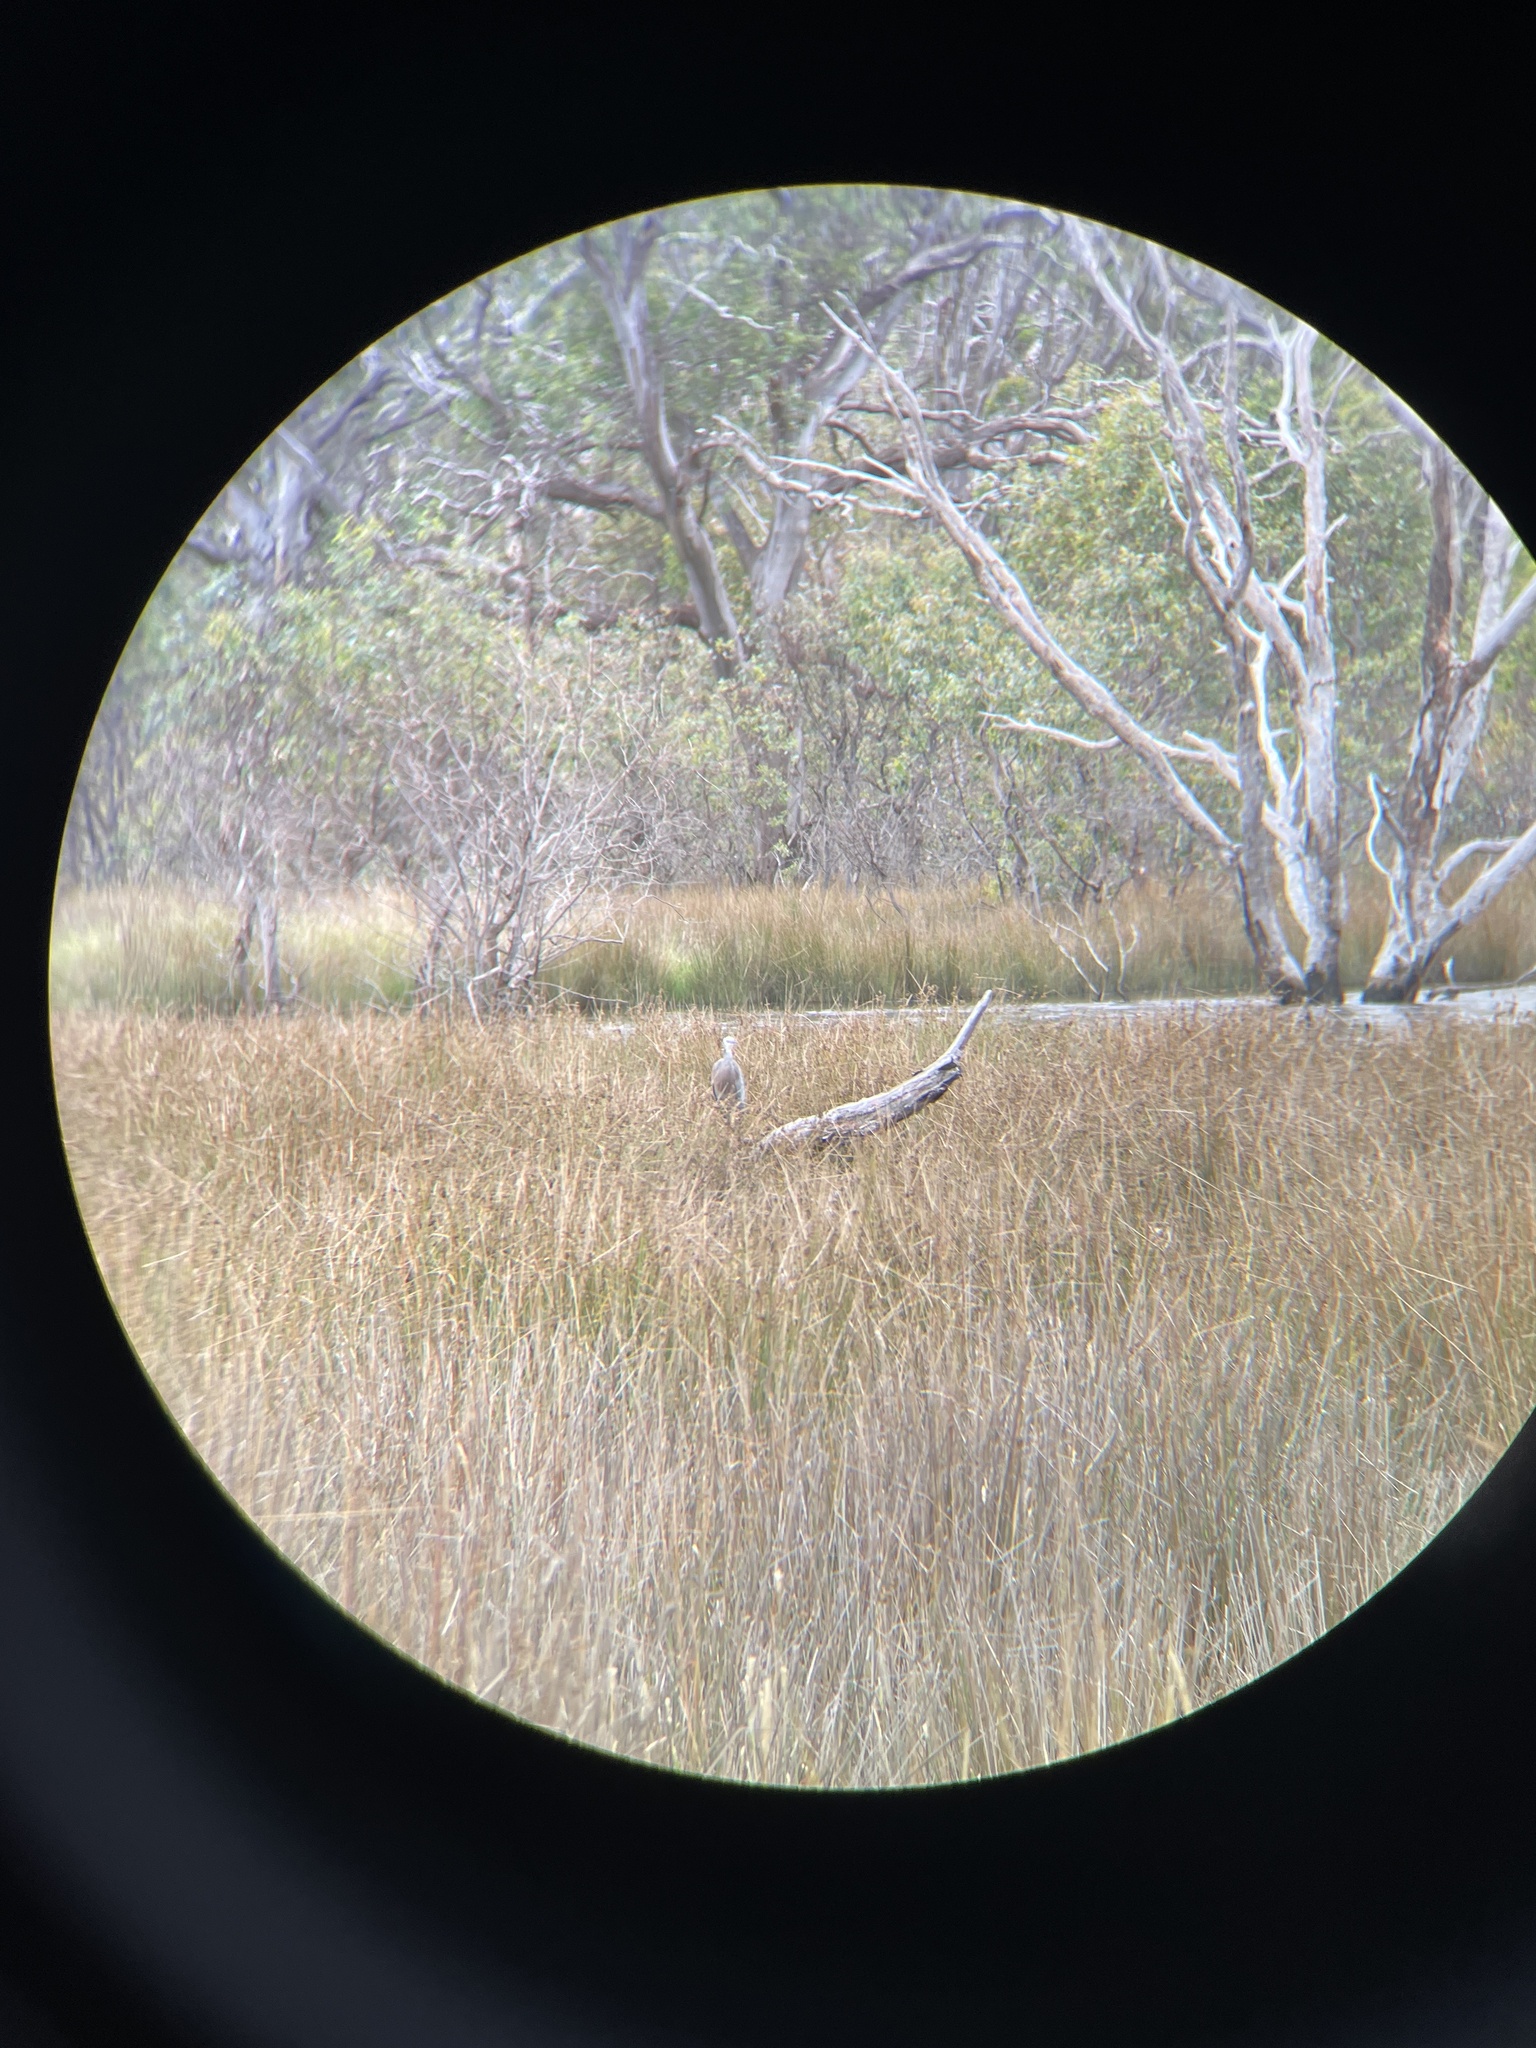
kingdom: Animalia
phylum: Chordata
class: Aves
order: Pelecaniformes
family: Ardeidae
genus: Ardea
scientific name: Ardea pacifica
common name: White-necked heron
